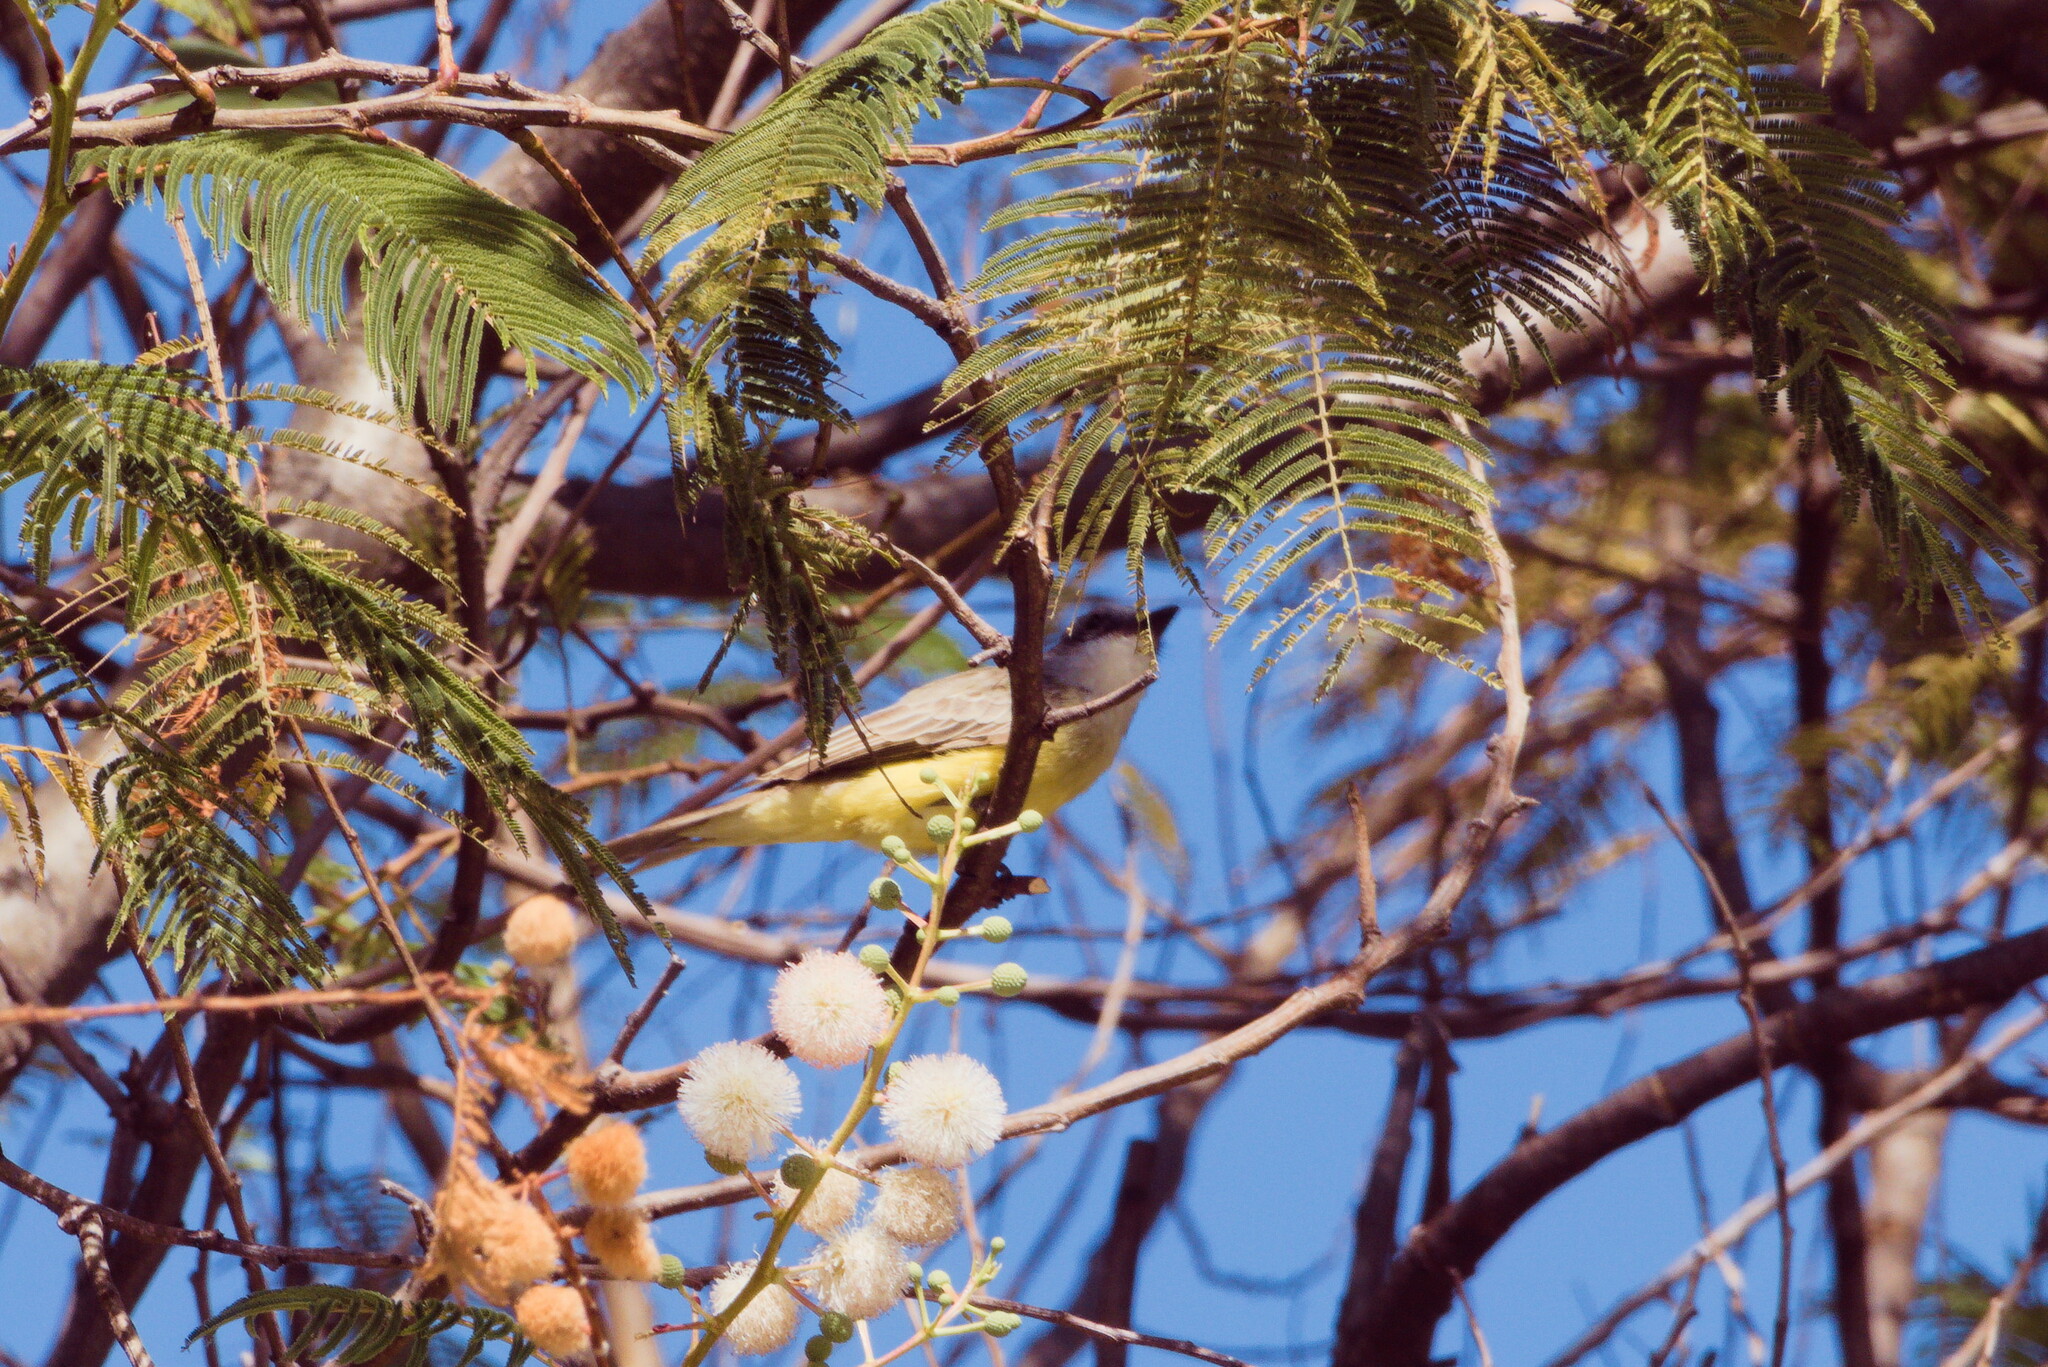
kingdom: Animalia
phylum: Chordata
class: Aves
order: Passeriformes
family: Tyrannidae
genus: Tyrannus
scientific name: Tyrannus vociferans
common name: Cassin's kingbird
